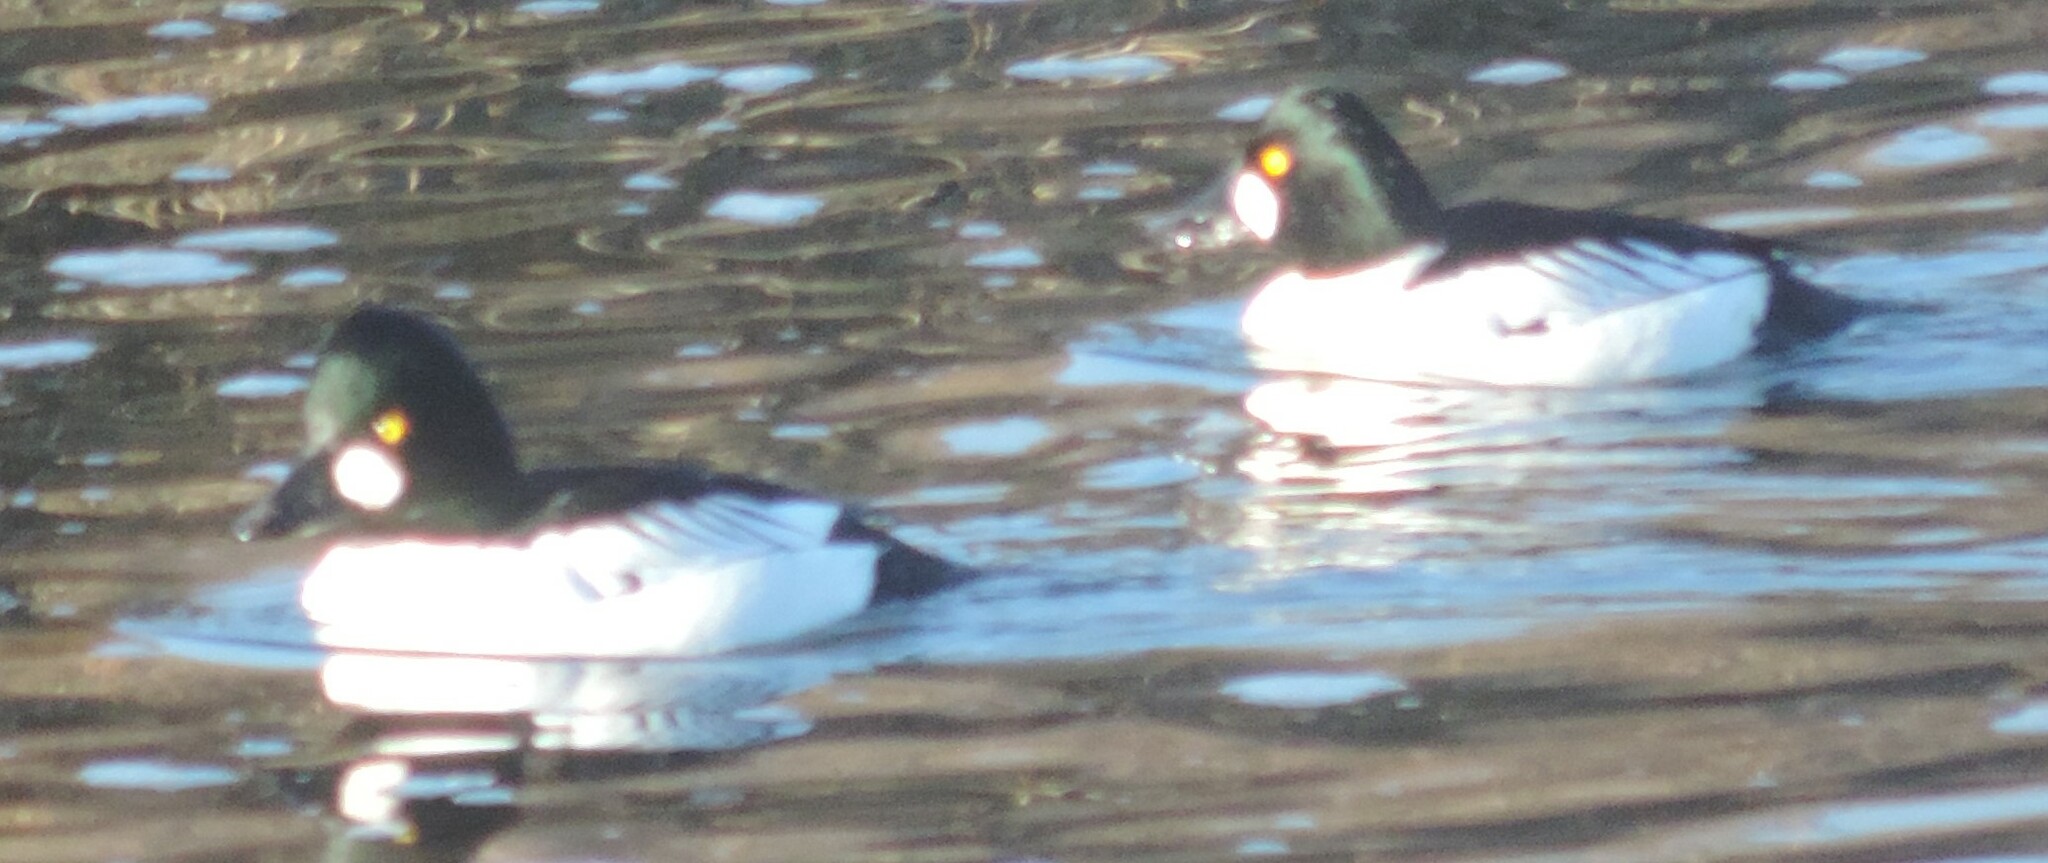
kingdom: Animalia
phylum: Chordata
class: Aves
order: Anseriformes
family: Anatidae
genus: Bucephala
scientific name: Bucephala clangula
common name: Common goldeneye
